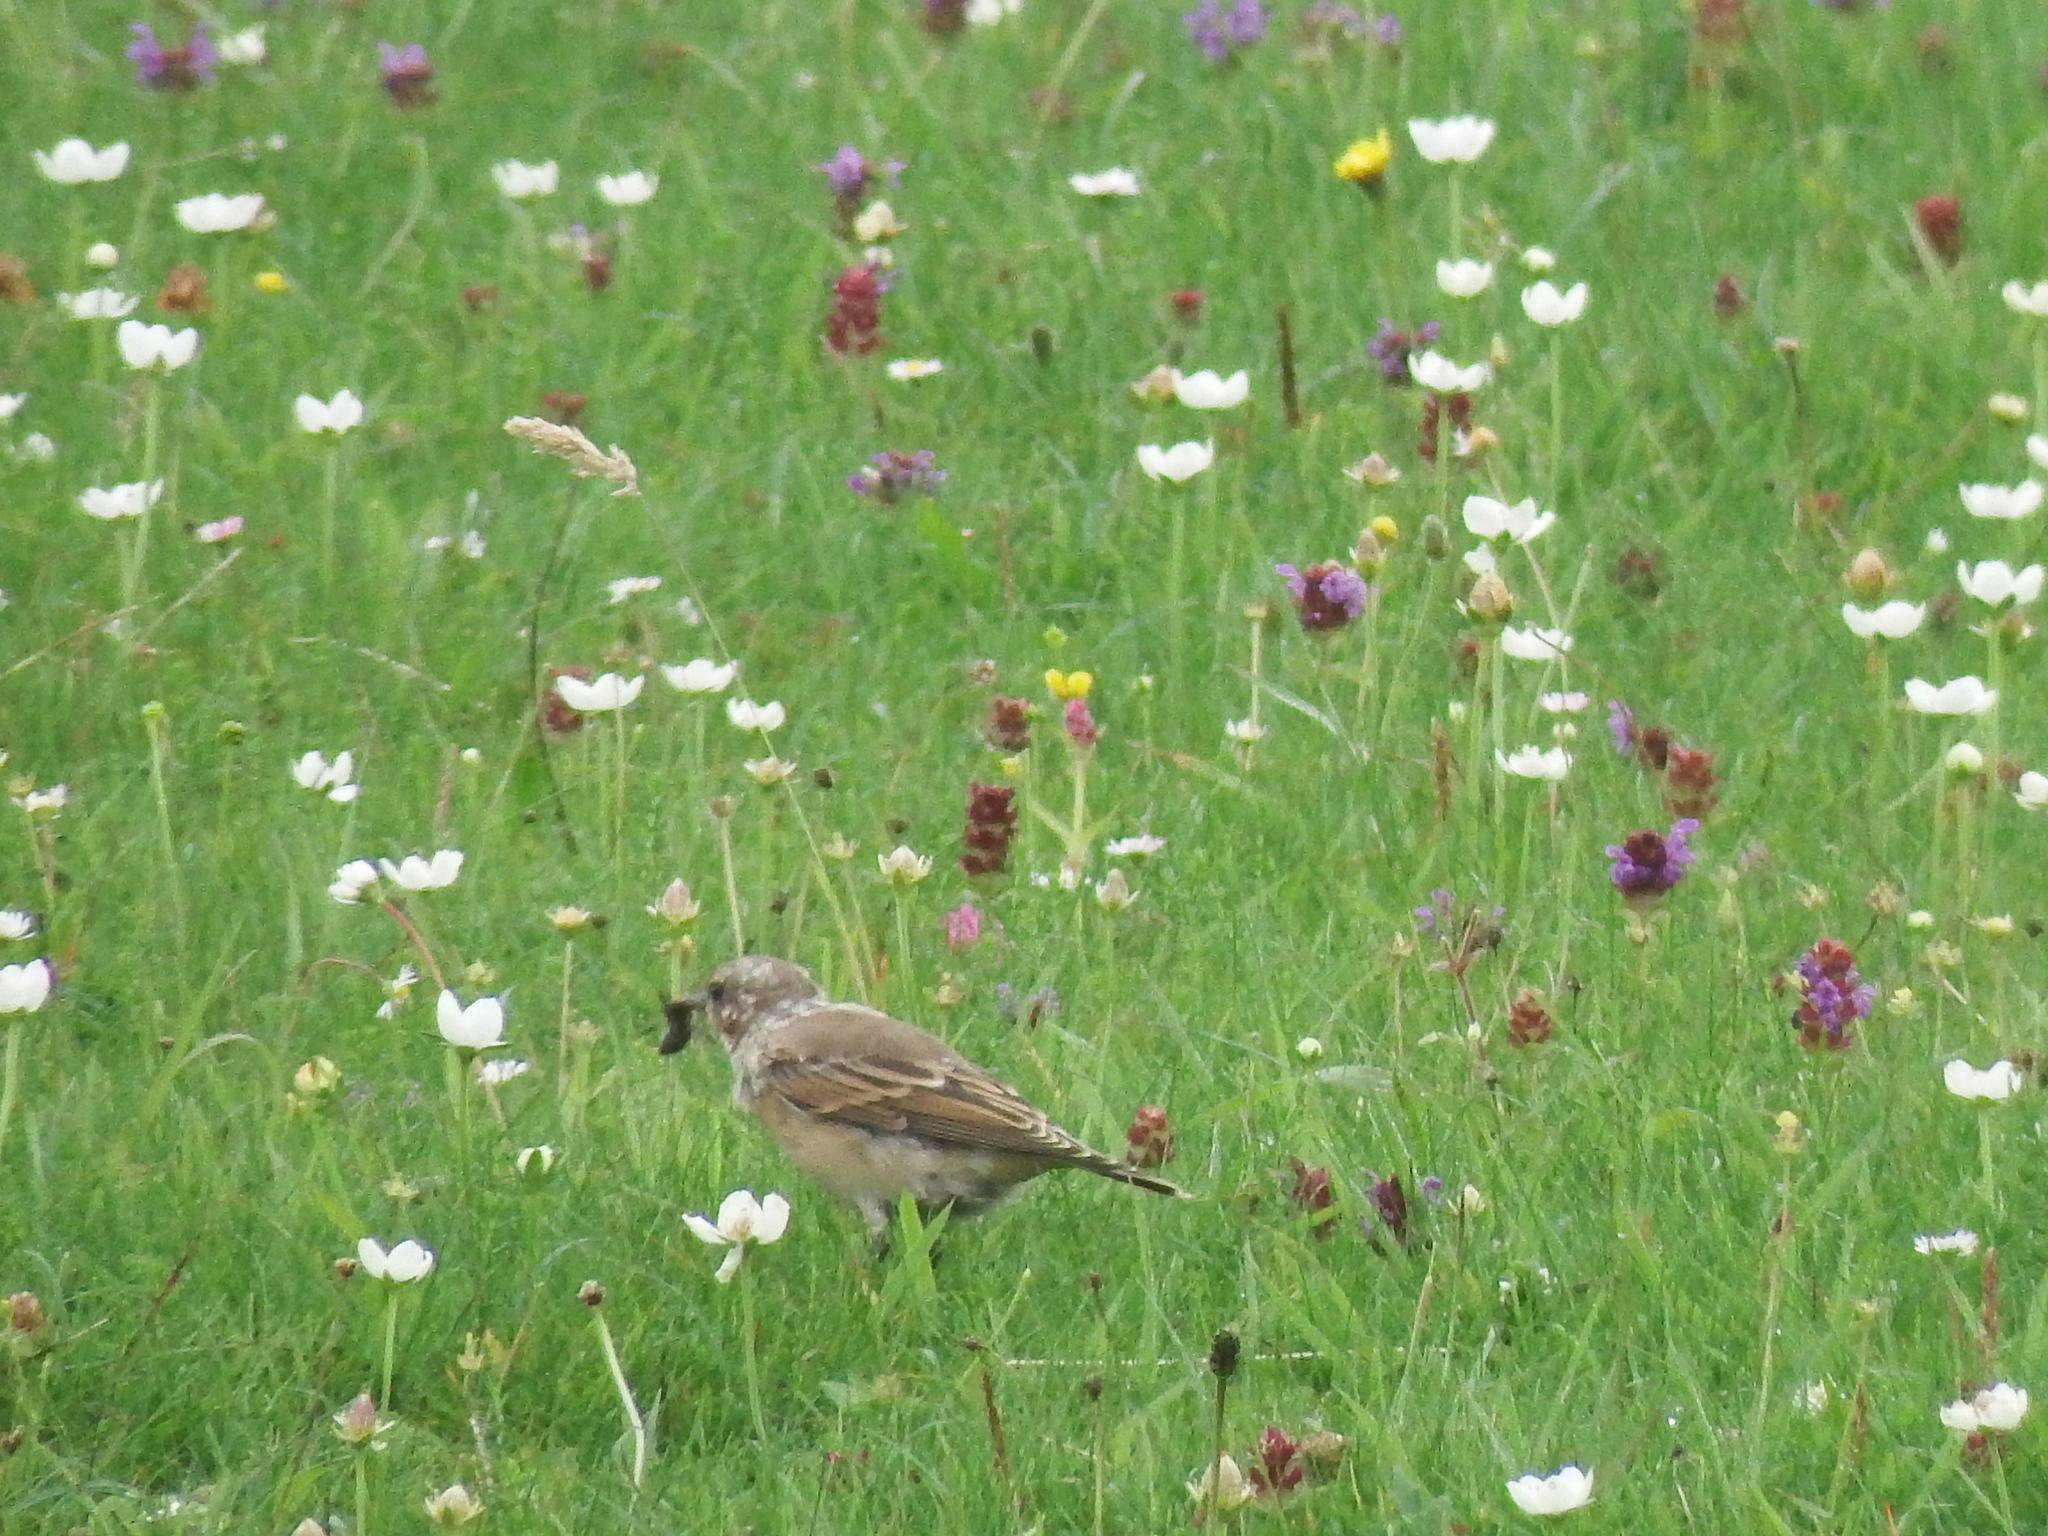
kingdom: Animalia
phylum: Chordata
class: Aves
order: Passeriformes
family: Muscicapidae
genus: Oenanthe
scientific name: Oenanthe oenanthe
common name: Northern wheatear
